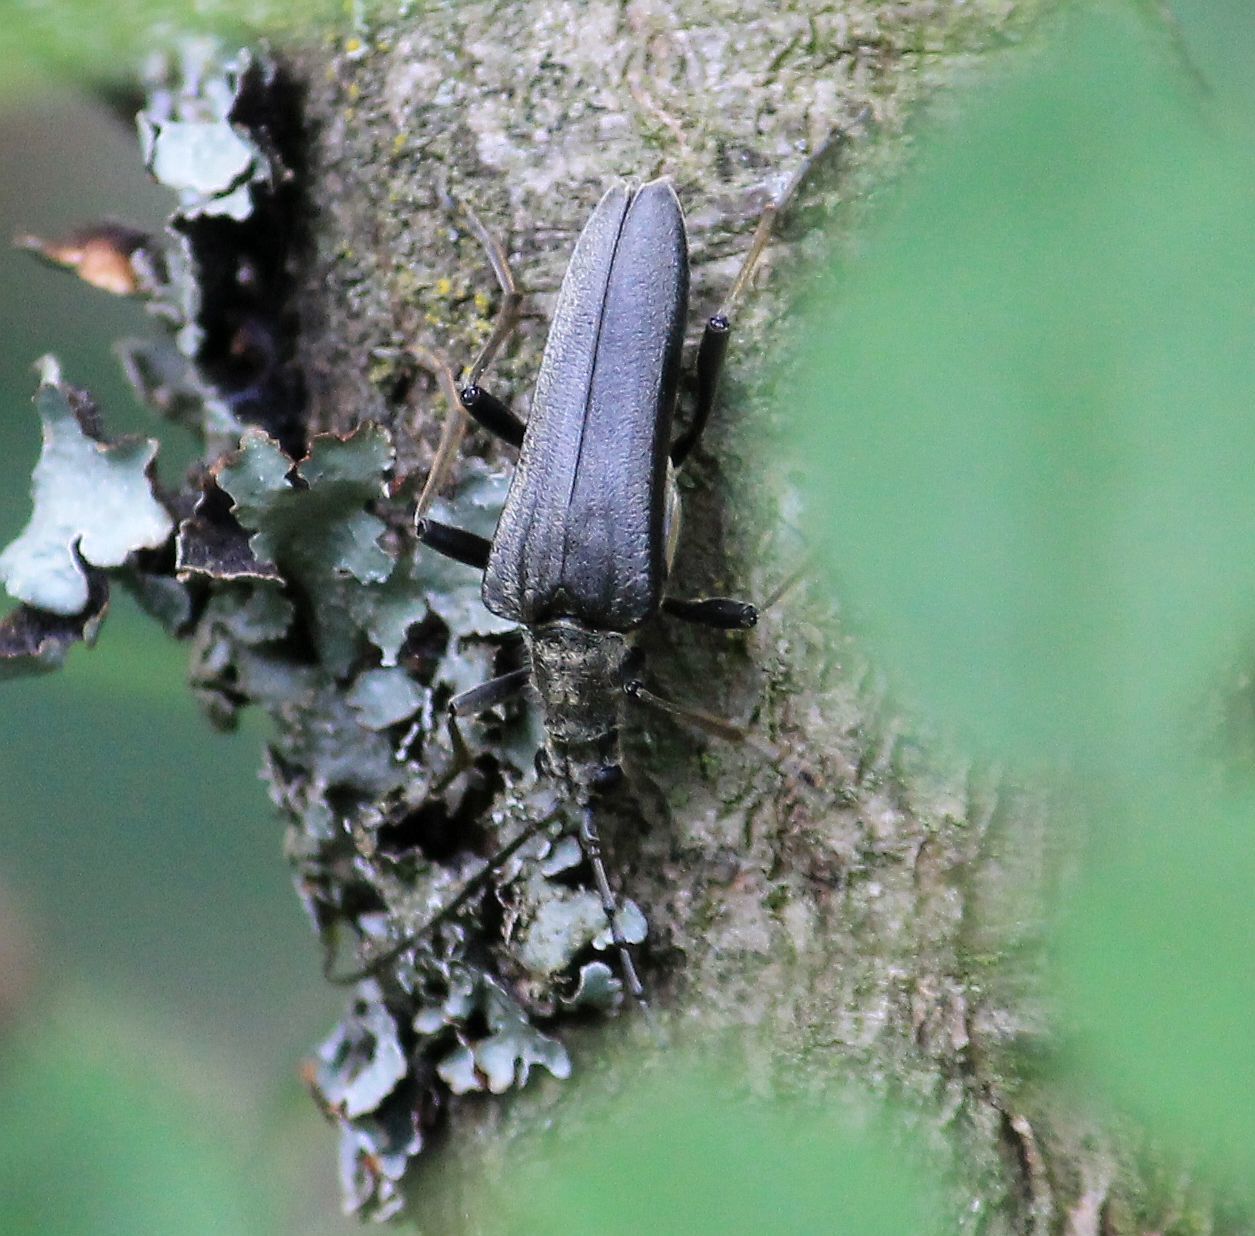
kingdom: Animalia
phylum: Arthropoda
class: Insecta
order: Coleoptera
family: Cerambycidae
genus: Stenocorus
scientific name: Stenocorus meridianus
